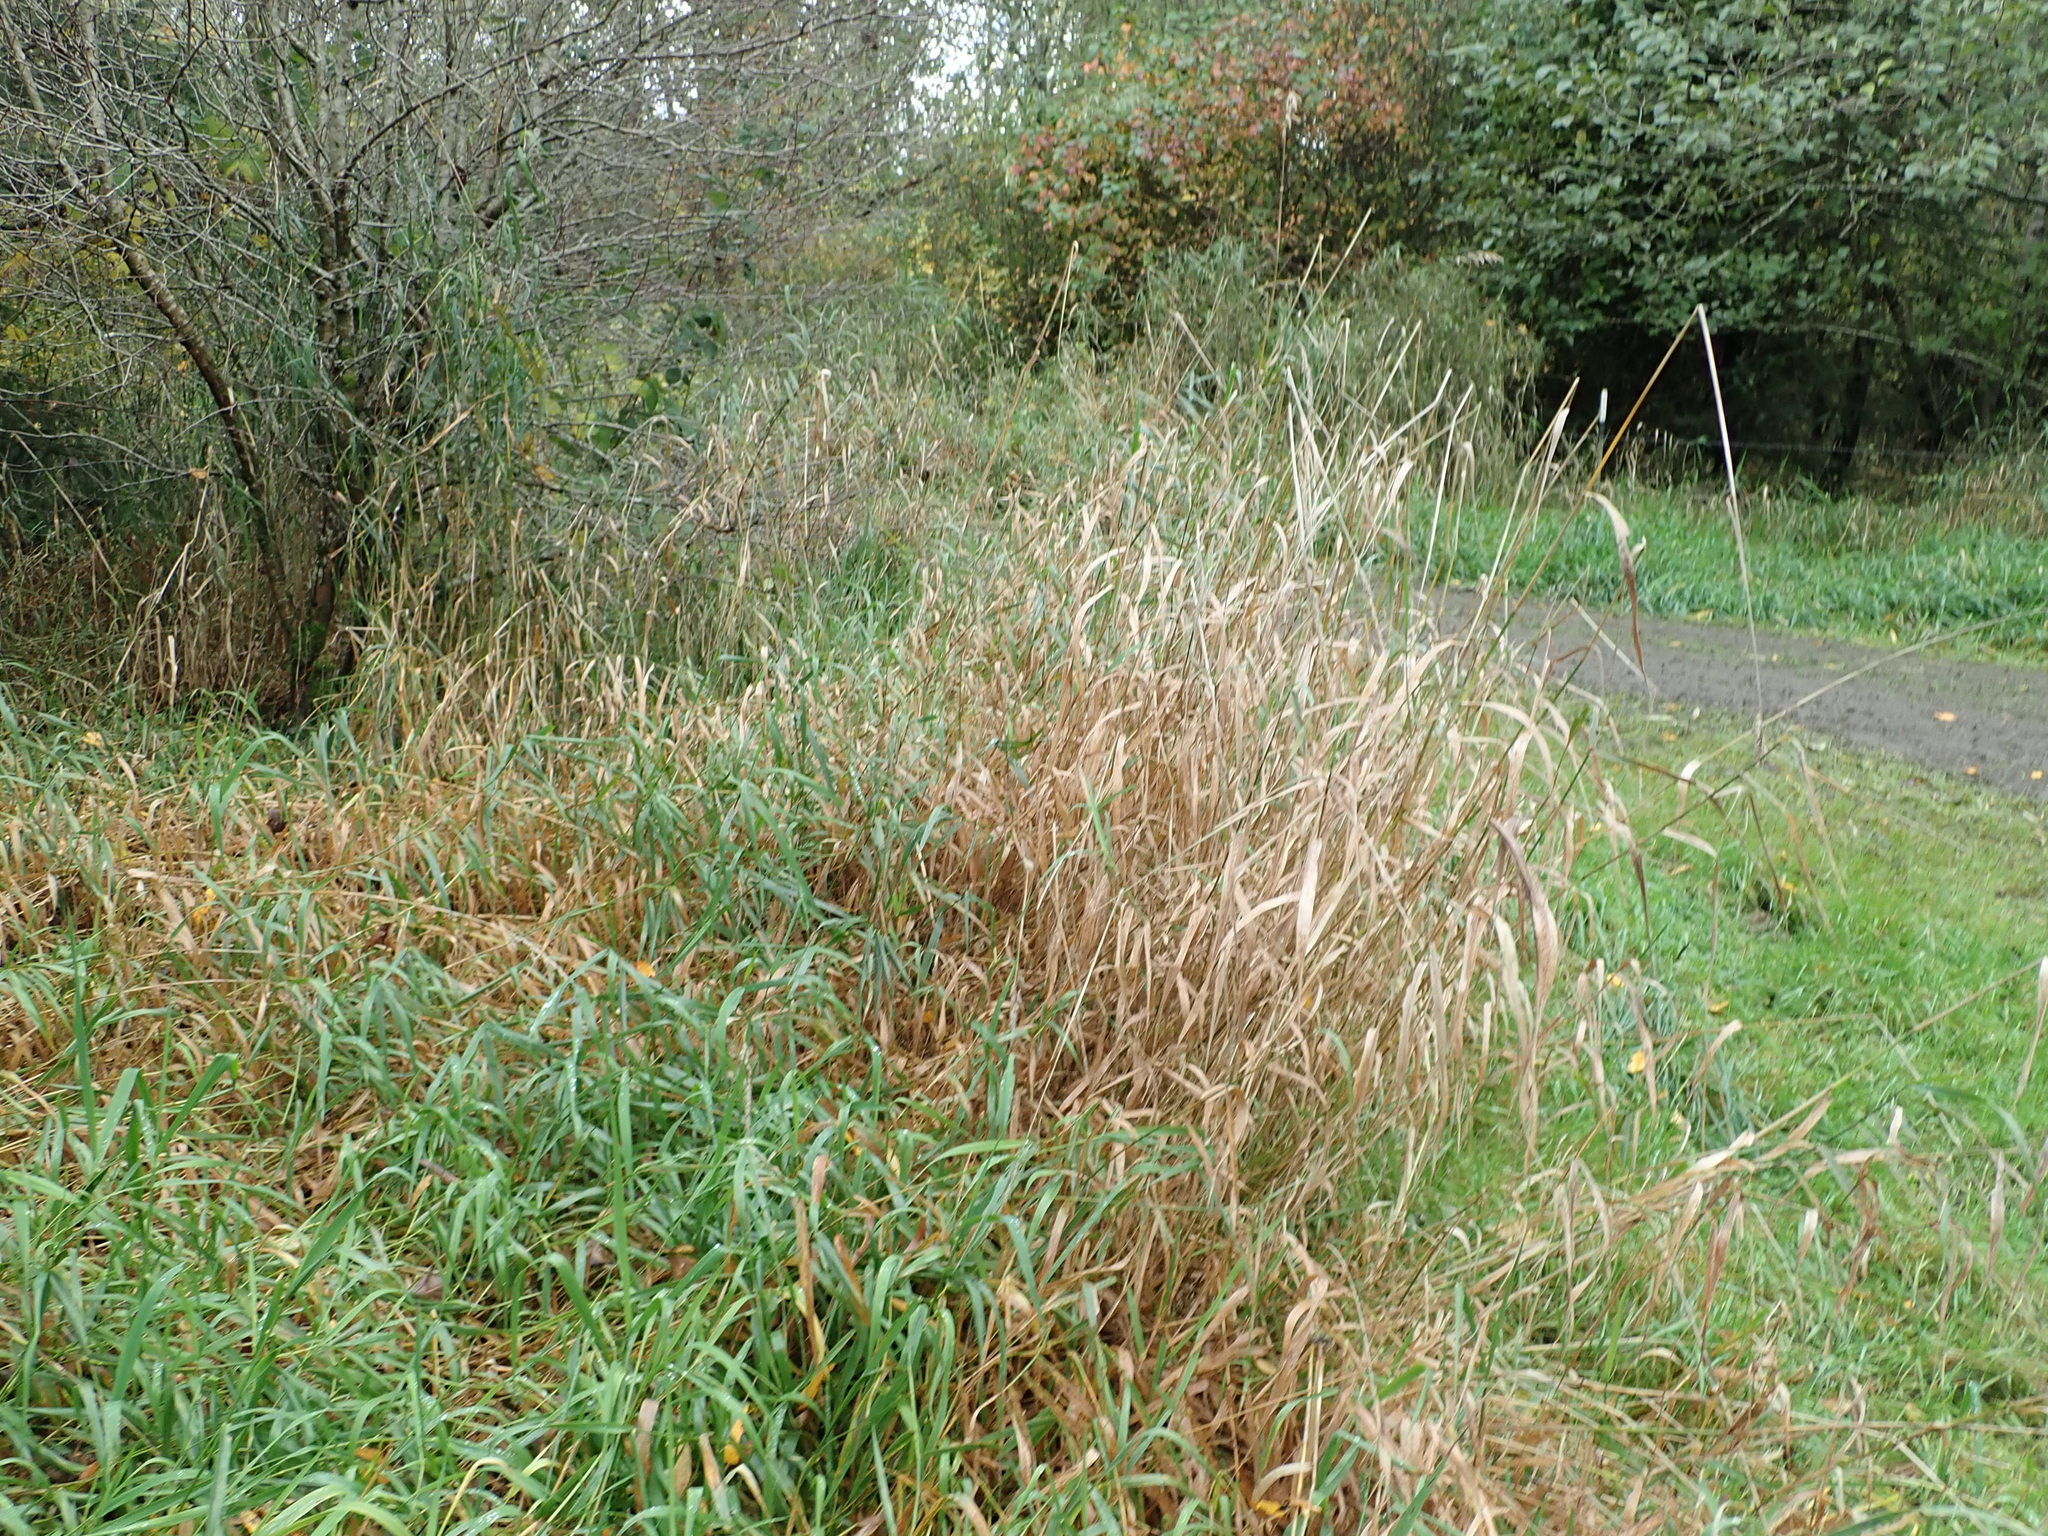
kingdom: Plantae
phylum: Tracheophyta
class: Liliopsida
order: Poales
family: Poaceae
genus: Phalaris
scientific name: Phalaris arundinacea
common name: Reed canary-grass
